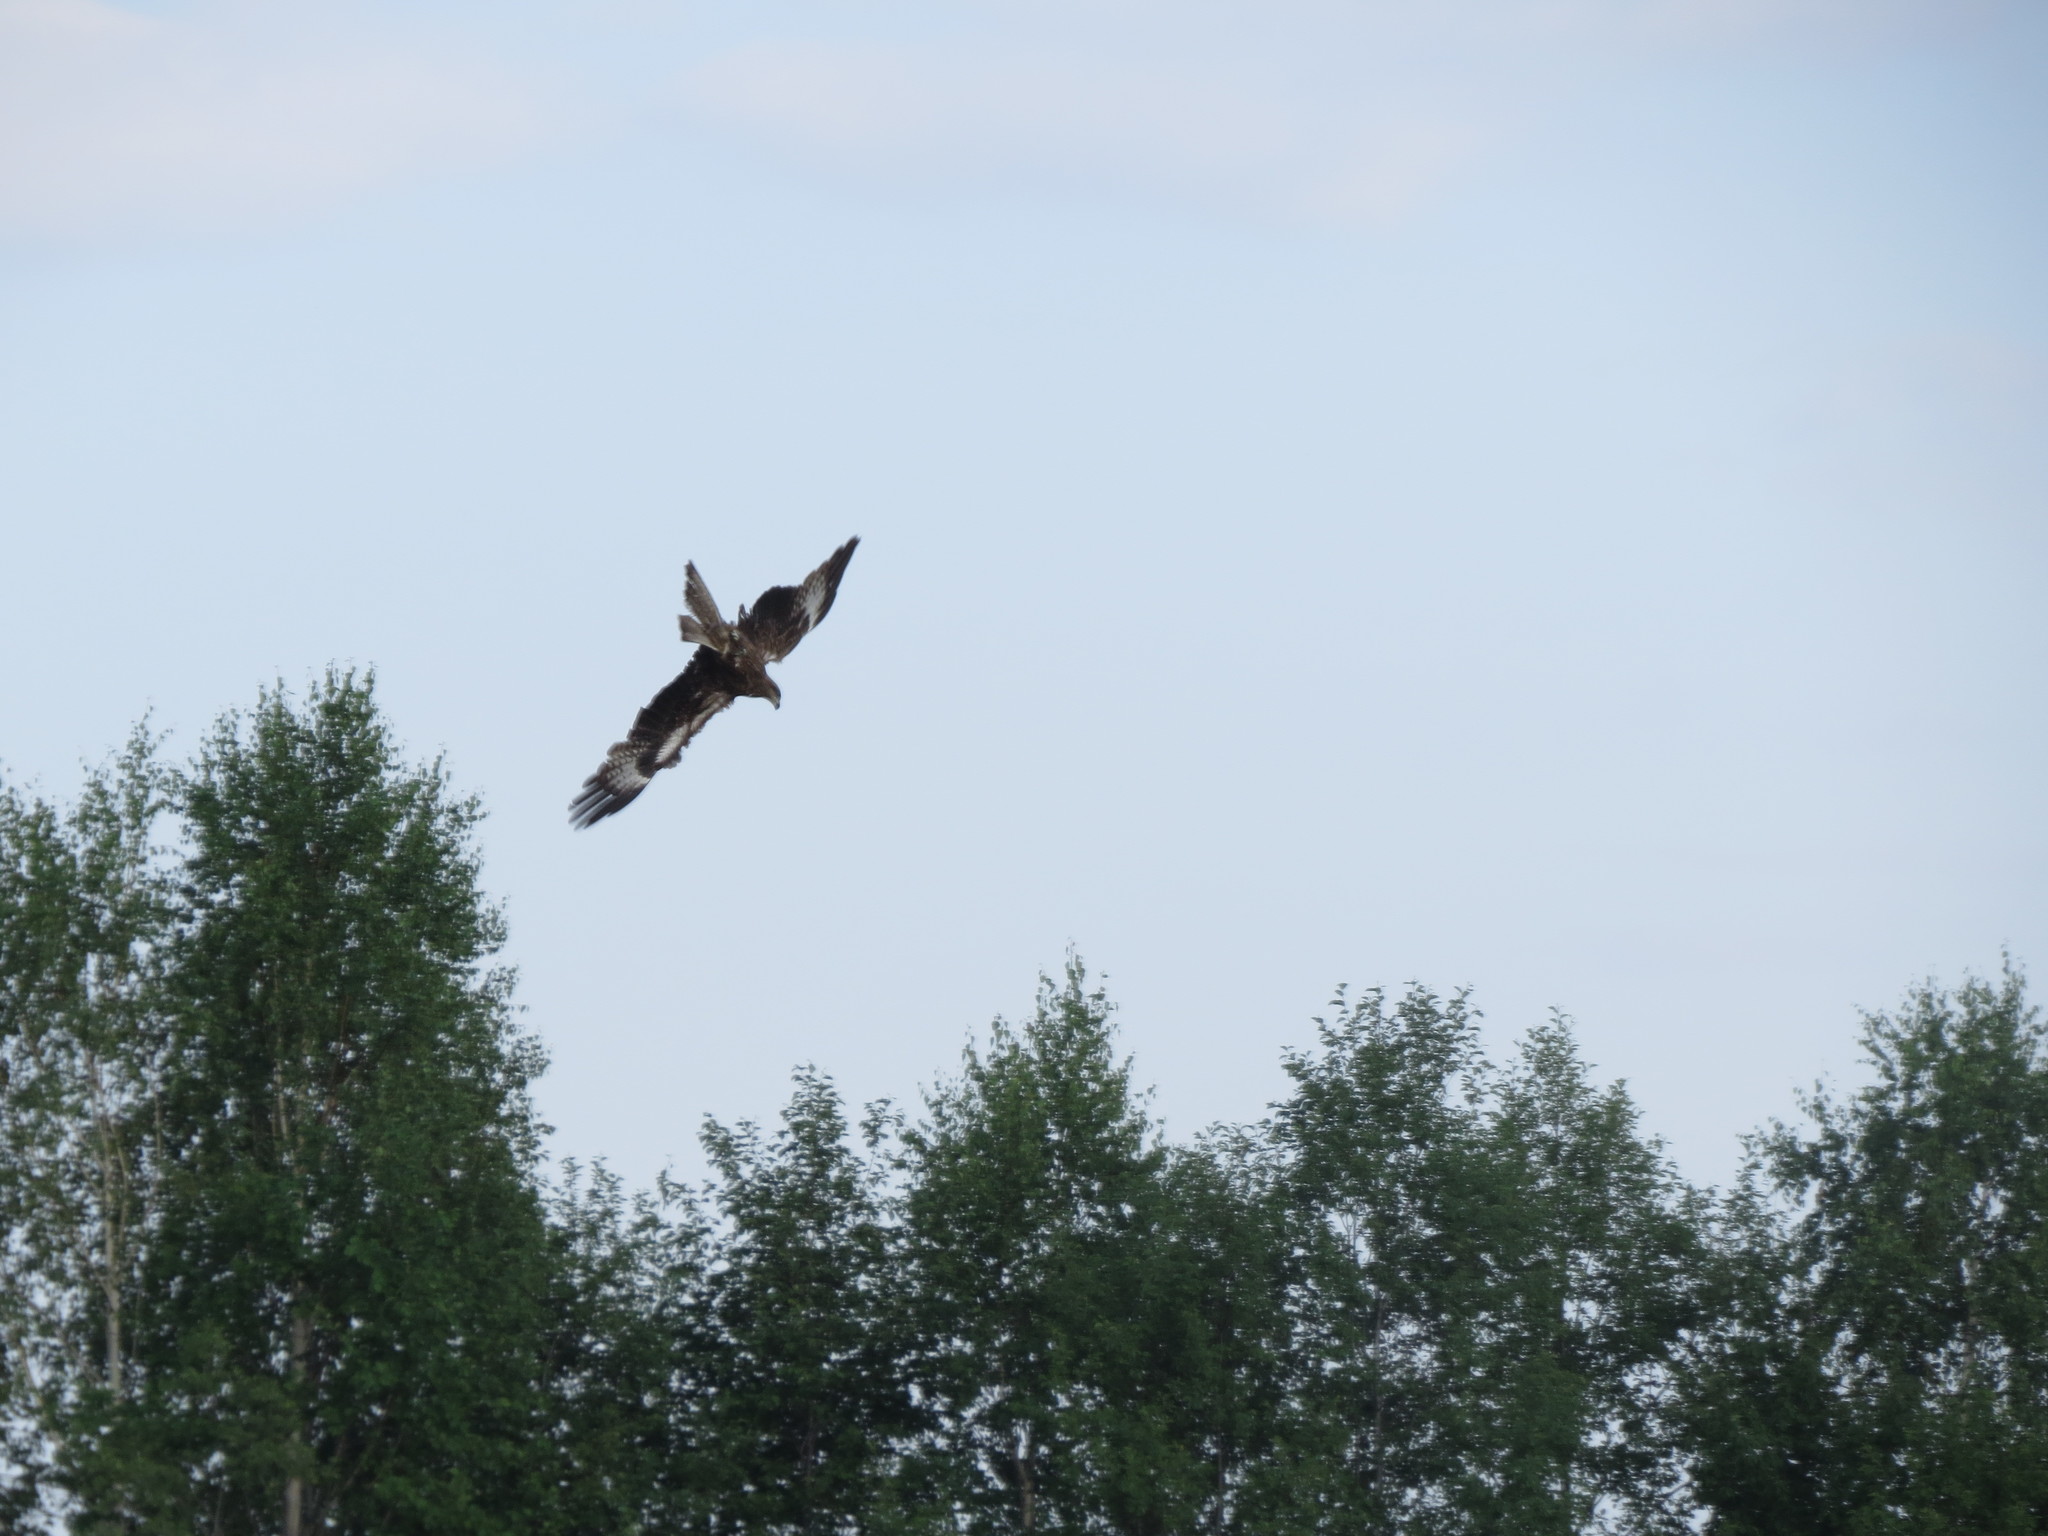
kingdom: Animalia
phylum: Chordata
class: Aves
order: Accipitriformes
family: Accipitridae
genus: Milvus
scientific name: Milvus migrans
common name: Black kite
